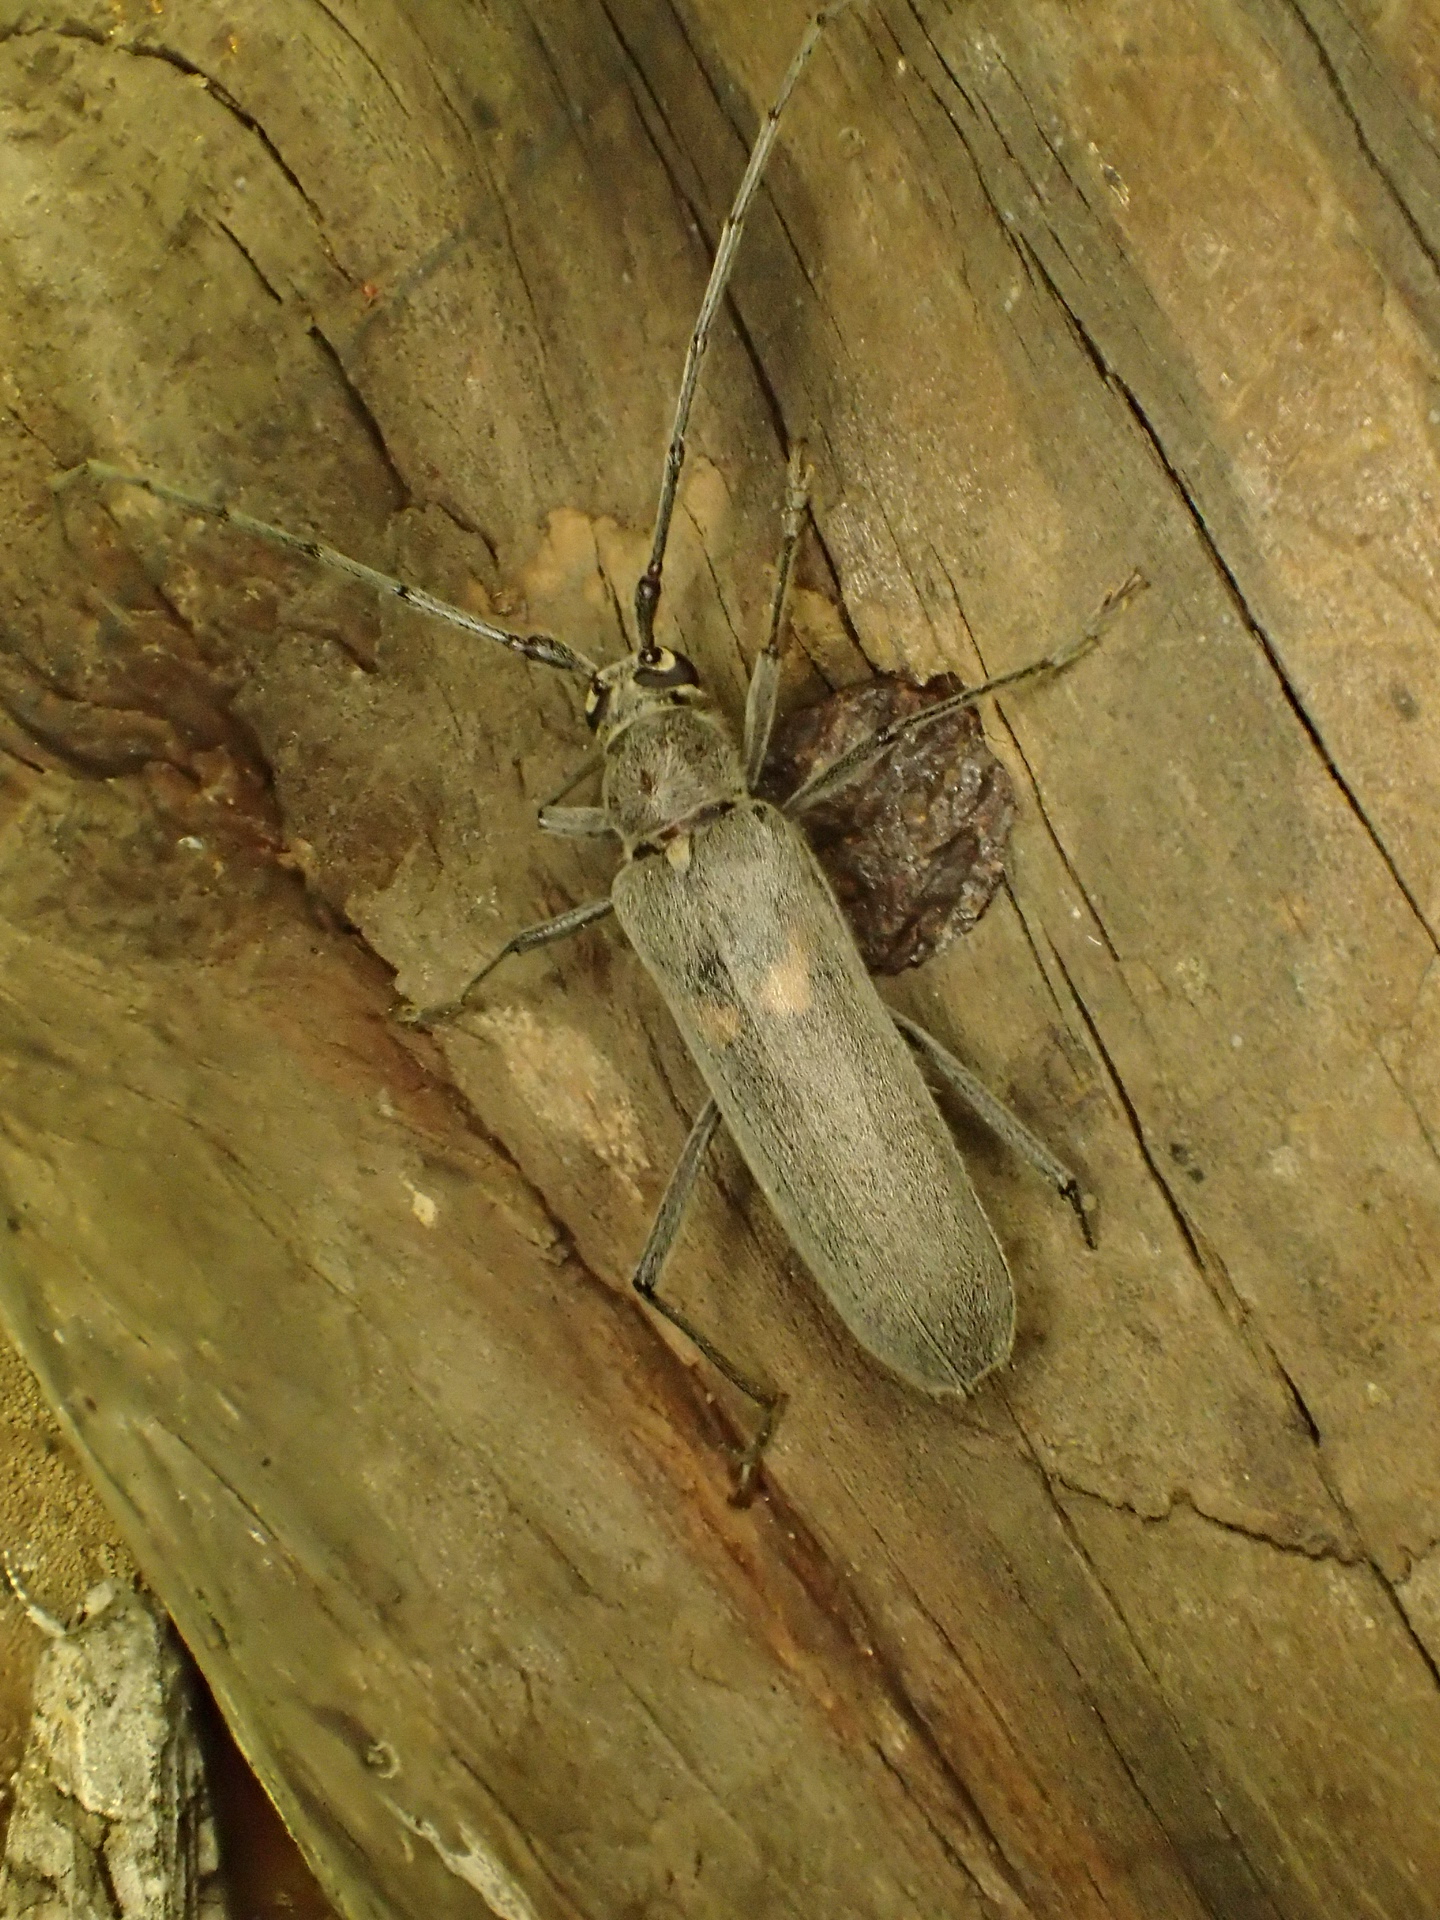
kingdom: Animalia
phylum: Arthropoda
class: Insecta
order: Coleoptera
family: Cerambycidae
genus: Knulliana
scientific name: Knulliana cincta
